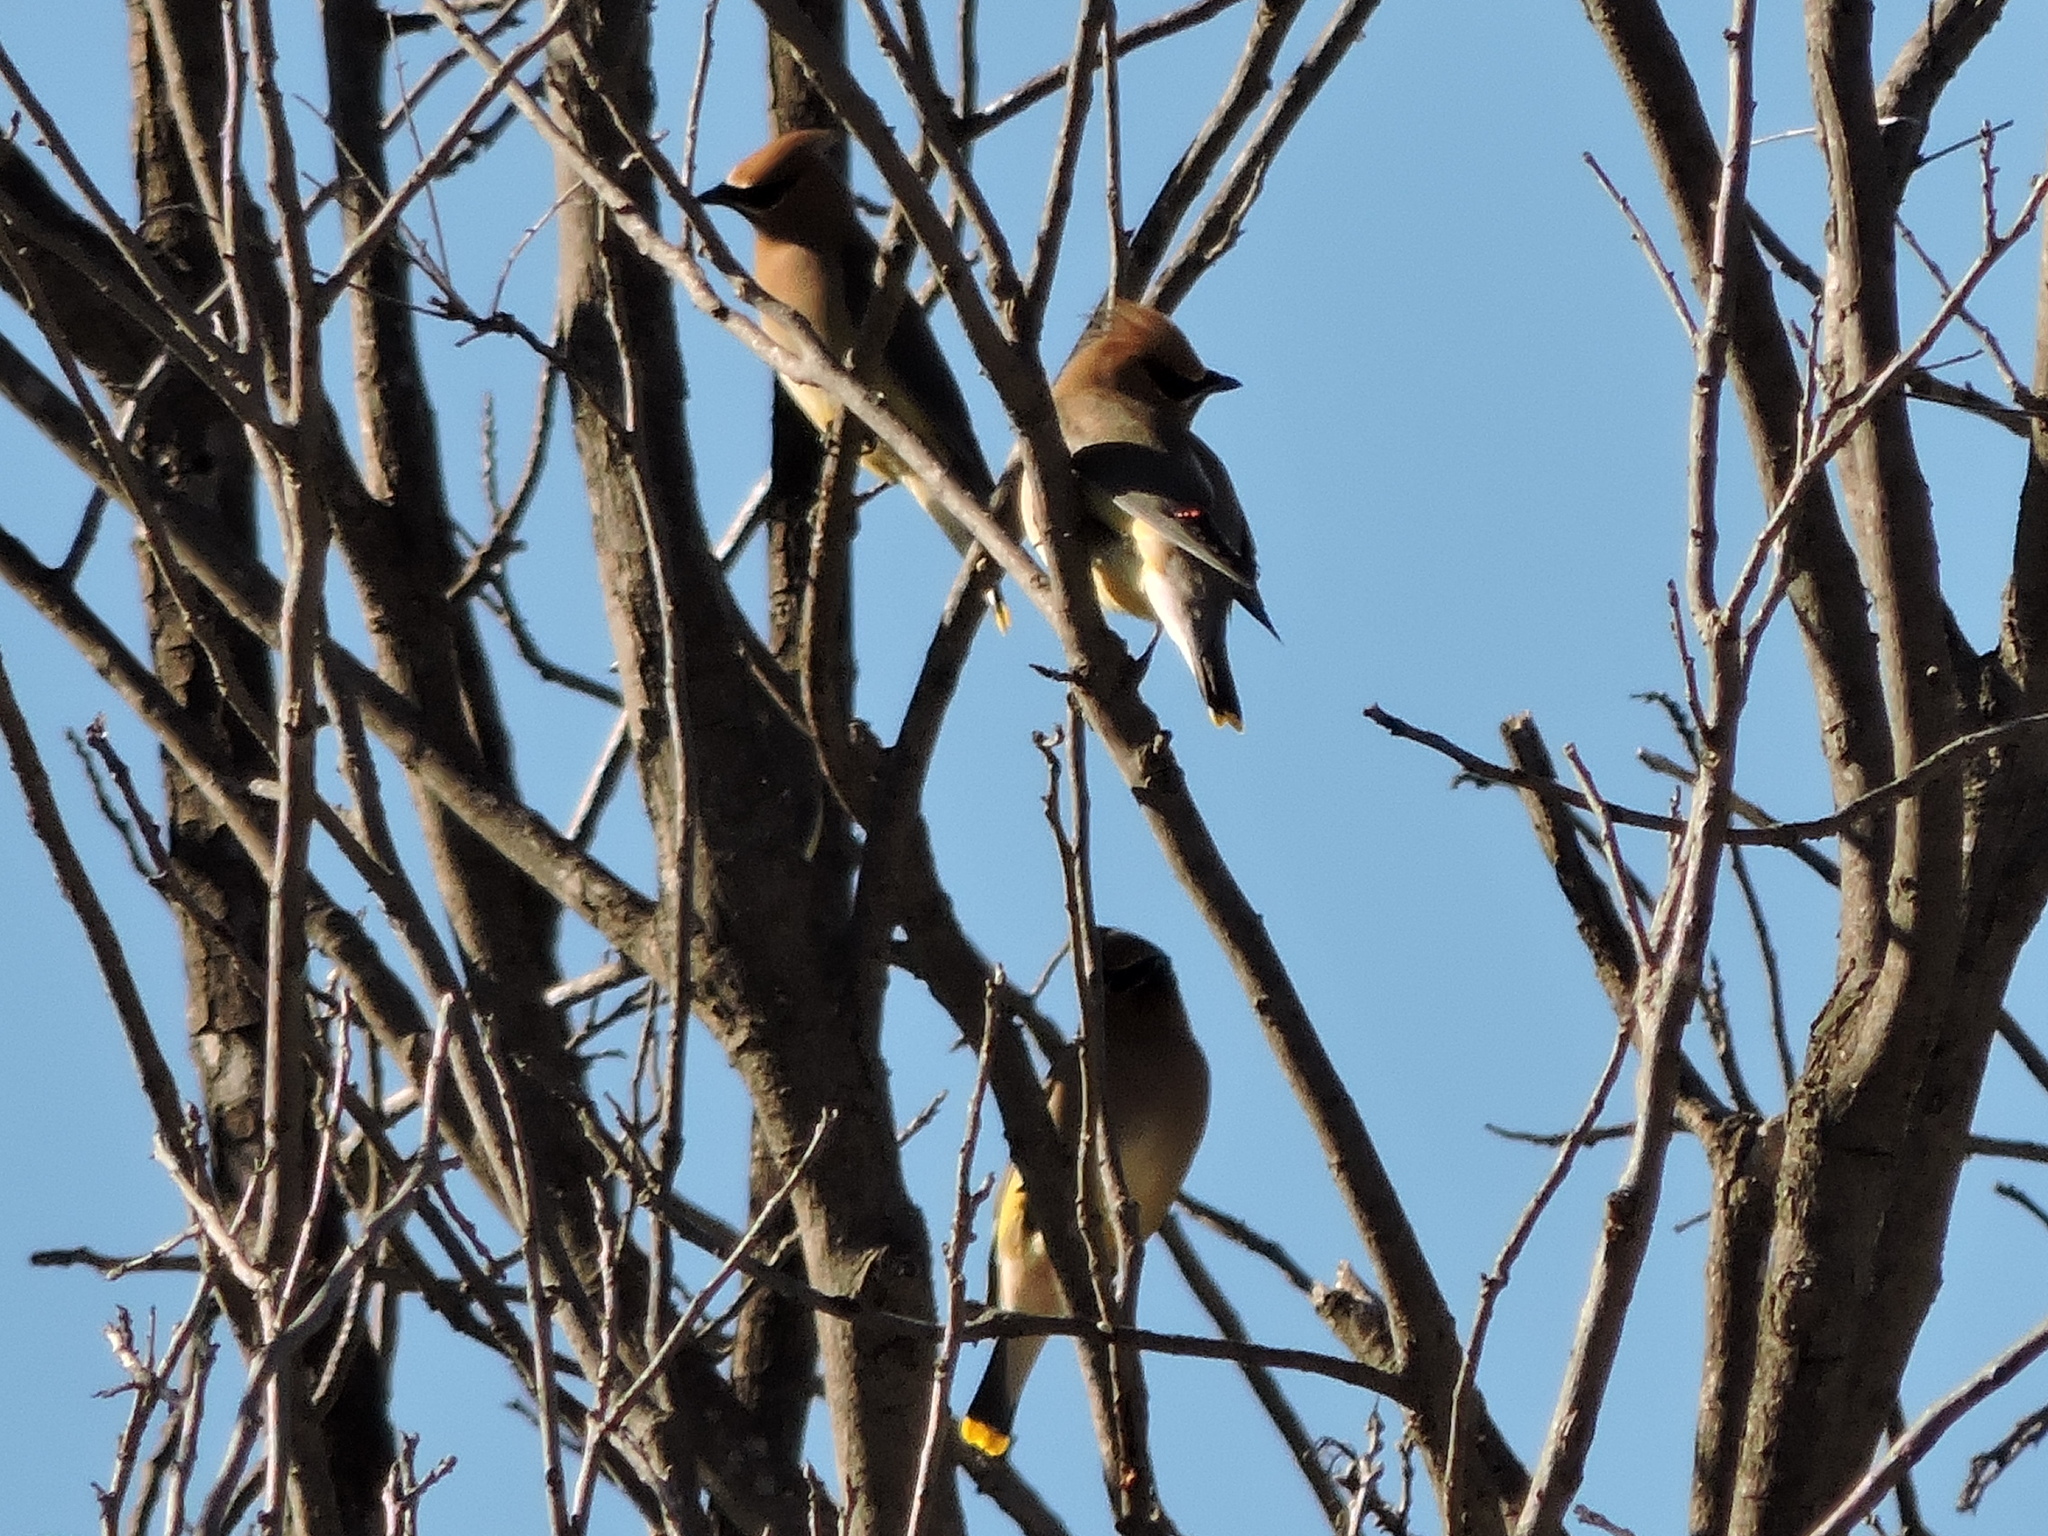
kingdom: Animalia
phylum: Chordata
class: Aves
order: Passeriformes
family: Bombycillidae
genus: Bombycilla
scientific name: Bombycilla cedrorum
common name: Cedar waxwing
